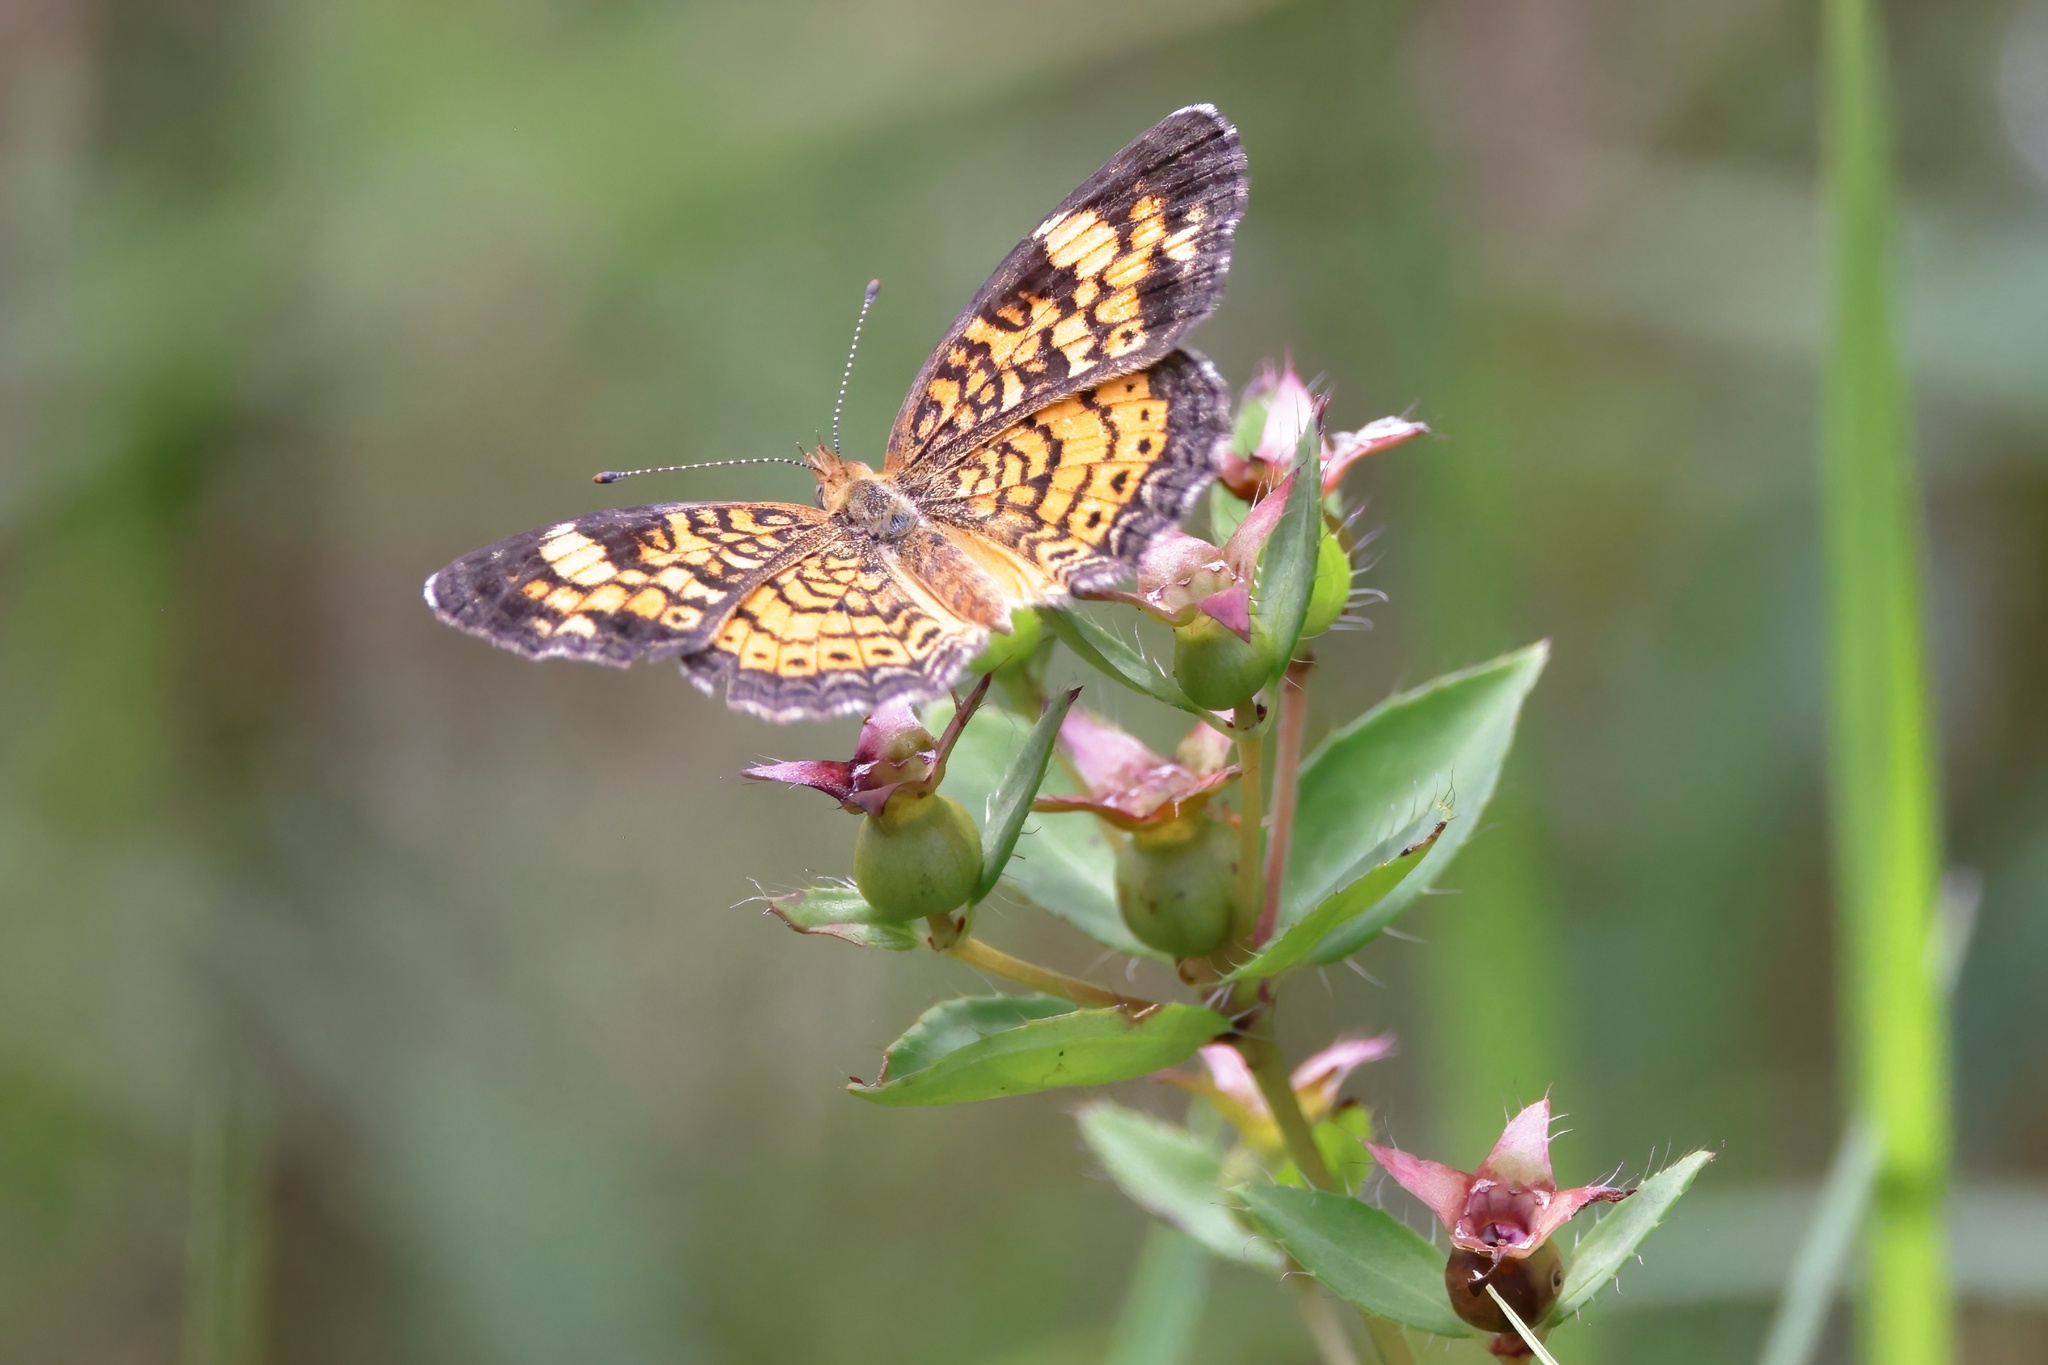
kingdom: Animalia
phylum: Arthropoda
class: Insecta
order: Lepidoptera
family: Nymphalidae
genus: Phyciodes
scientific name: Phyciodes tharos
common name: Pearl crescent
